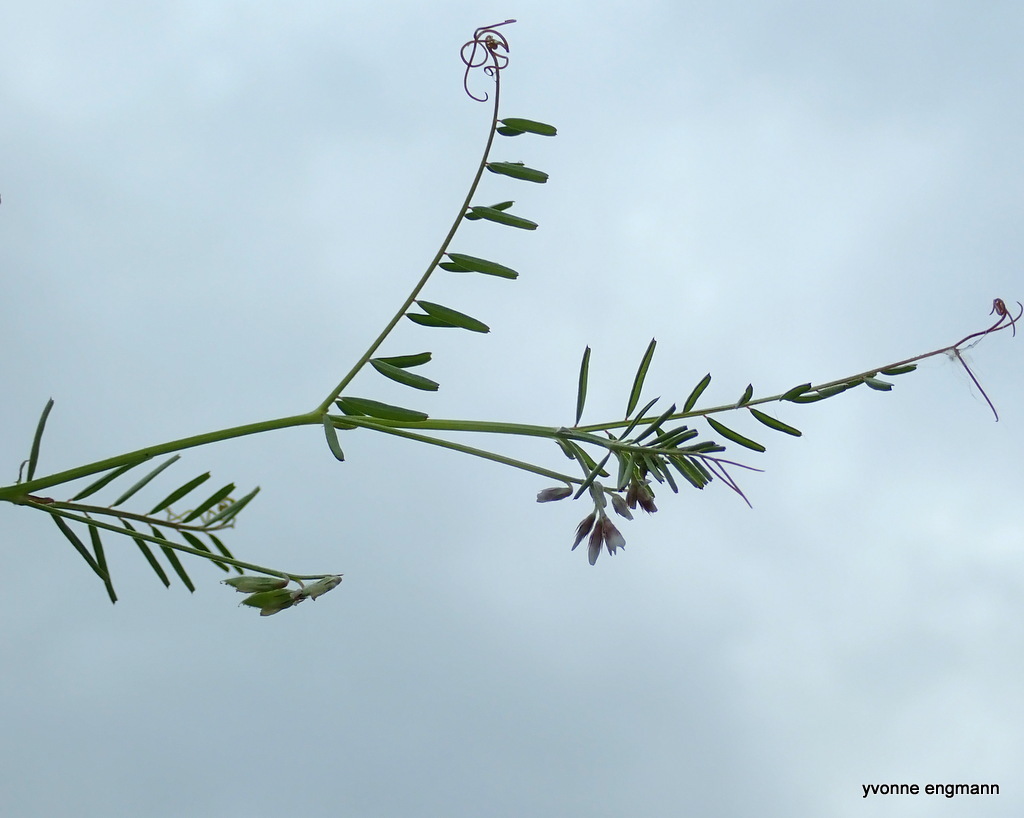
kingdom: Plantae
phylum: Tracheophyta
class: Magnoliopsida
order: Fabales
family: Fabaceae
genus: Vicia
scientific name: Vicia hirsuta
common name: Tiny vetch
